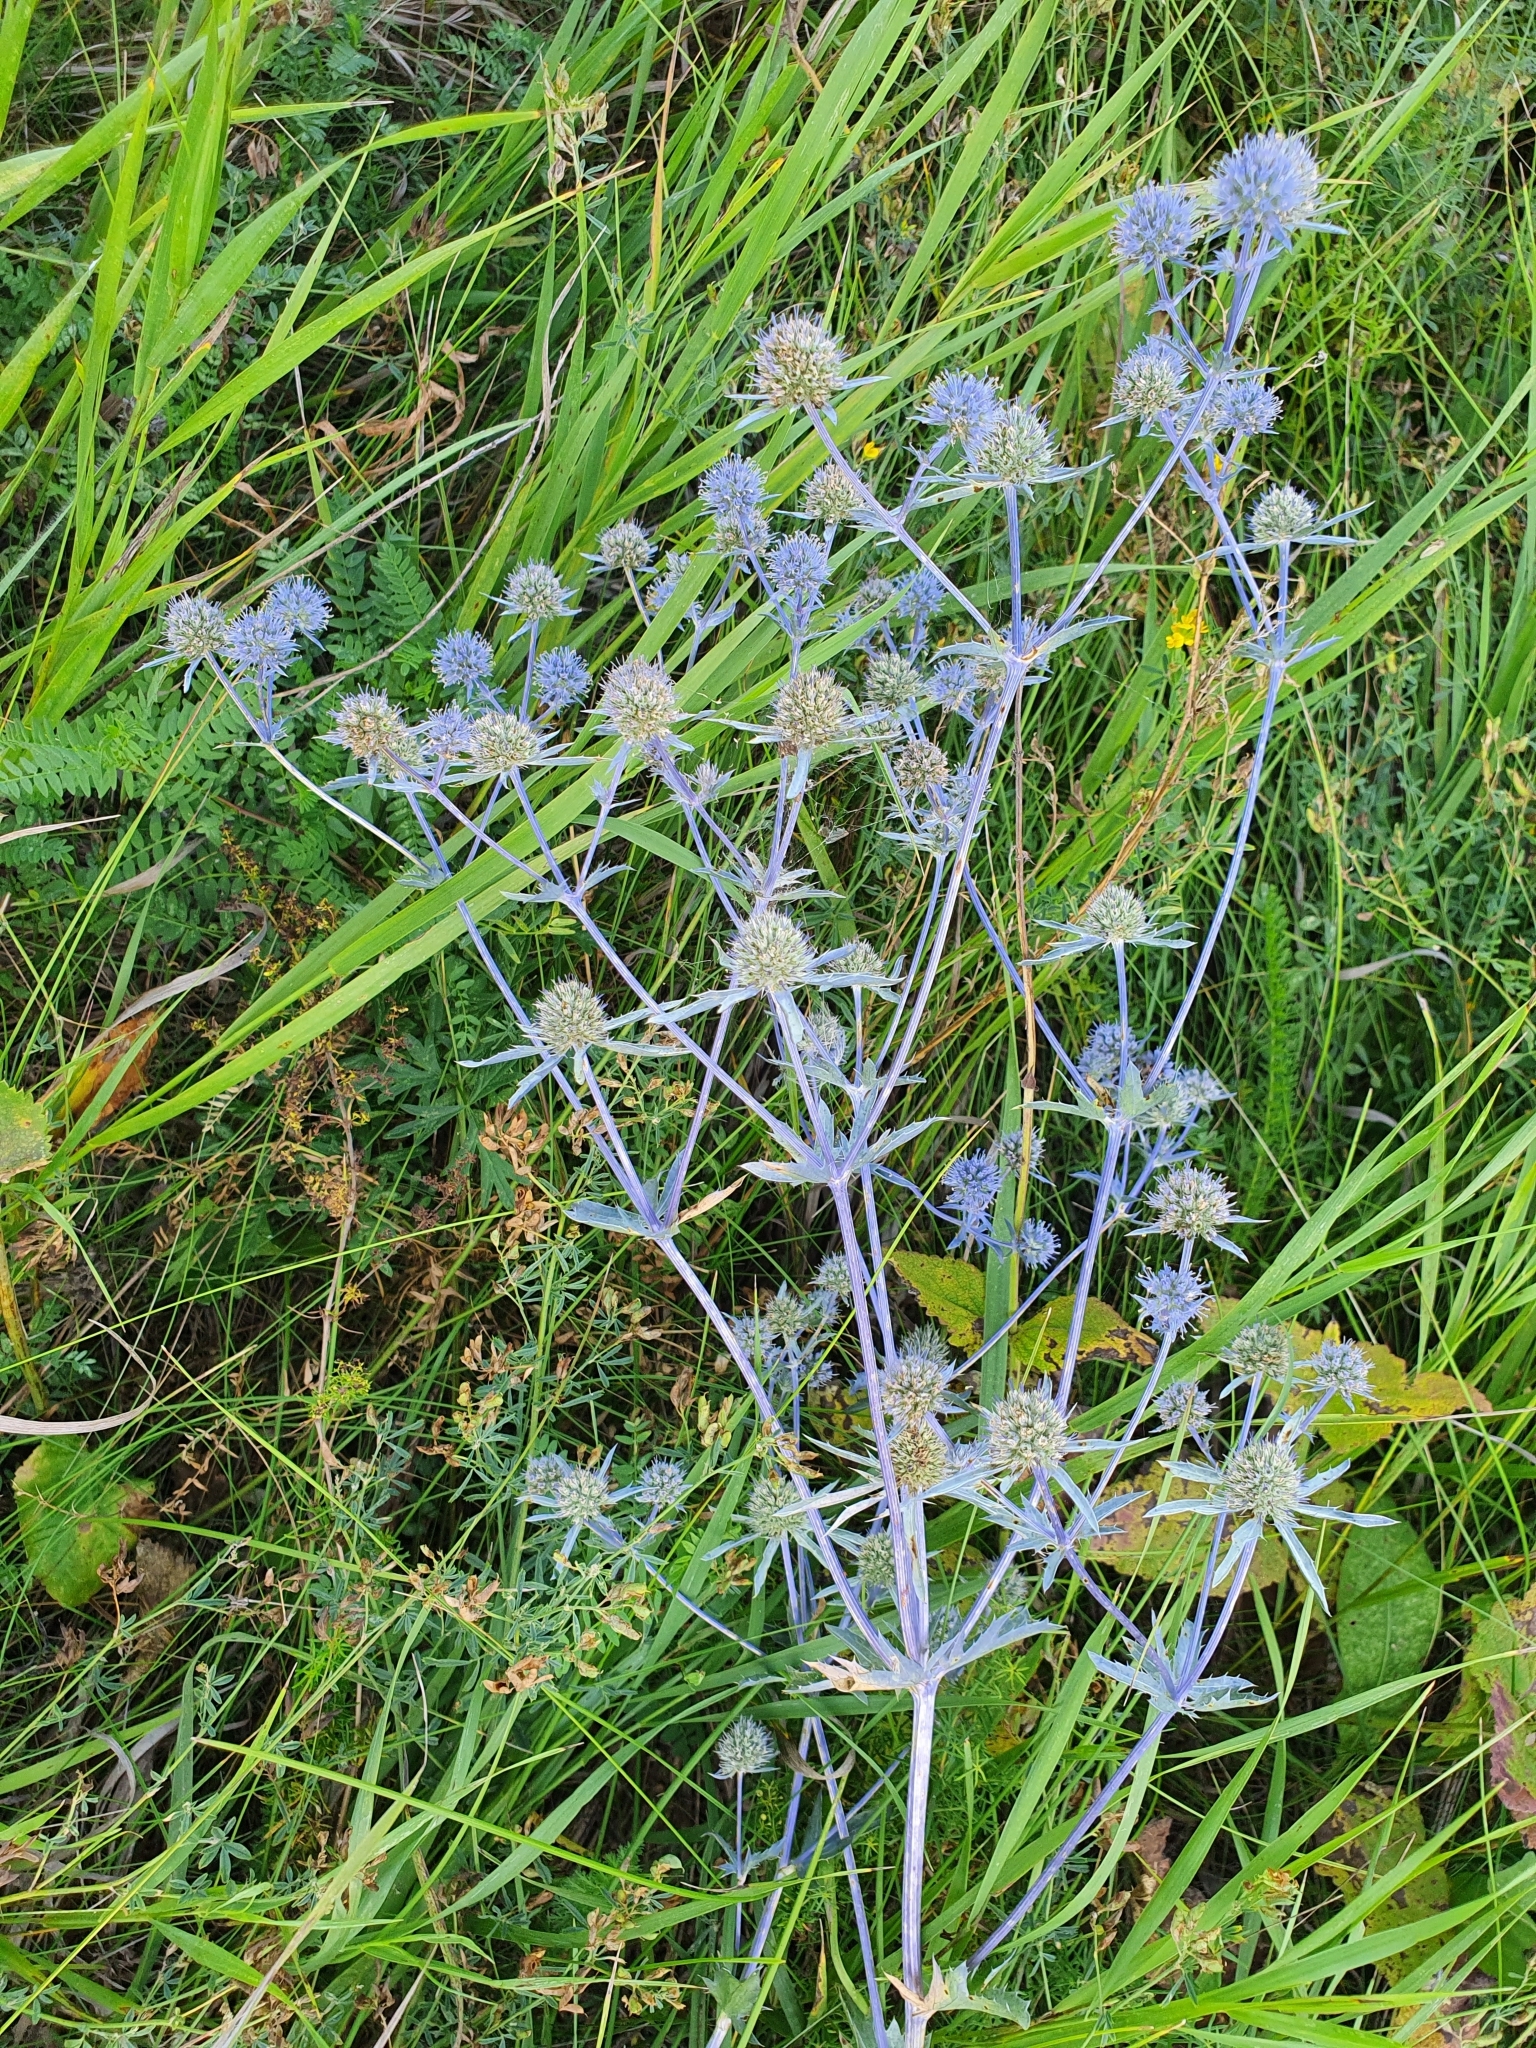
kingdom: Plantae
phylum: Tracheophyta
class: Magnoliopsida
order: Apiales
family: Apiaceae
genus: Eryngium
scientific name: Eryngium planum
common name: Blue eryngo
